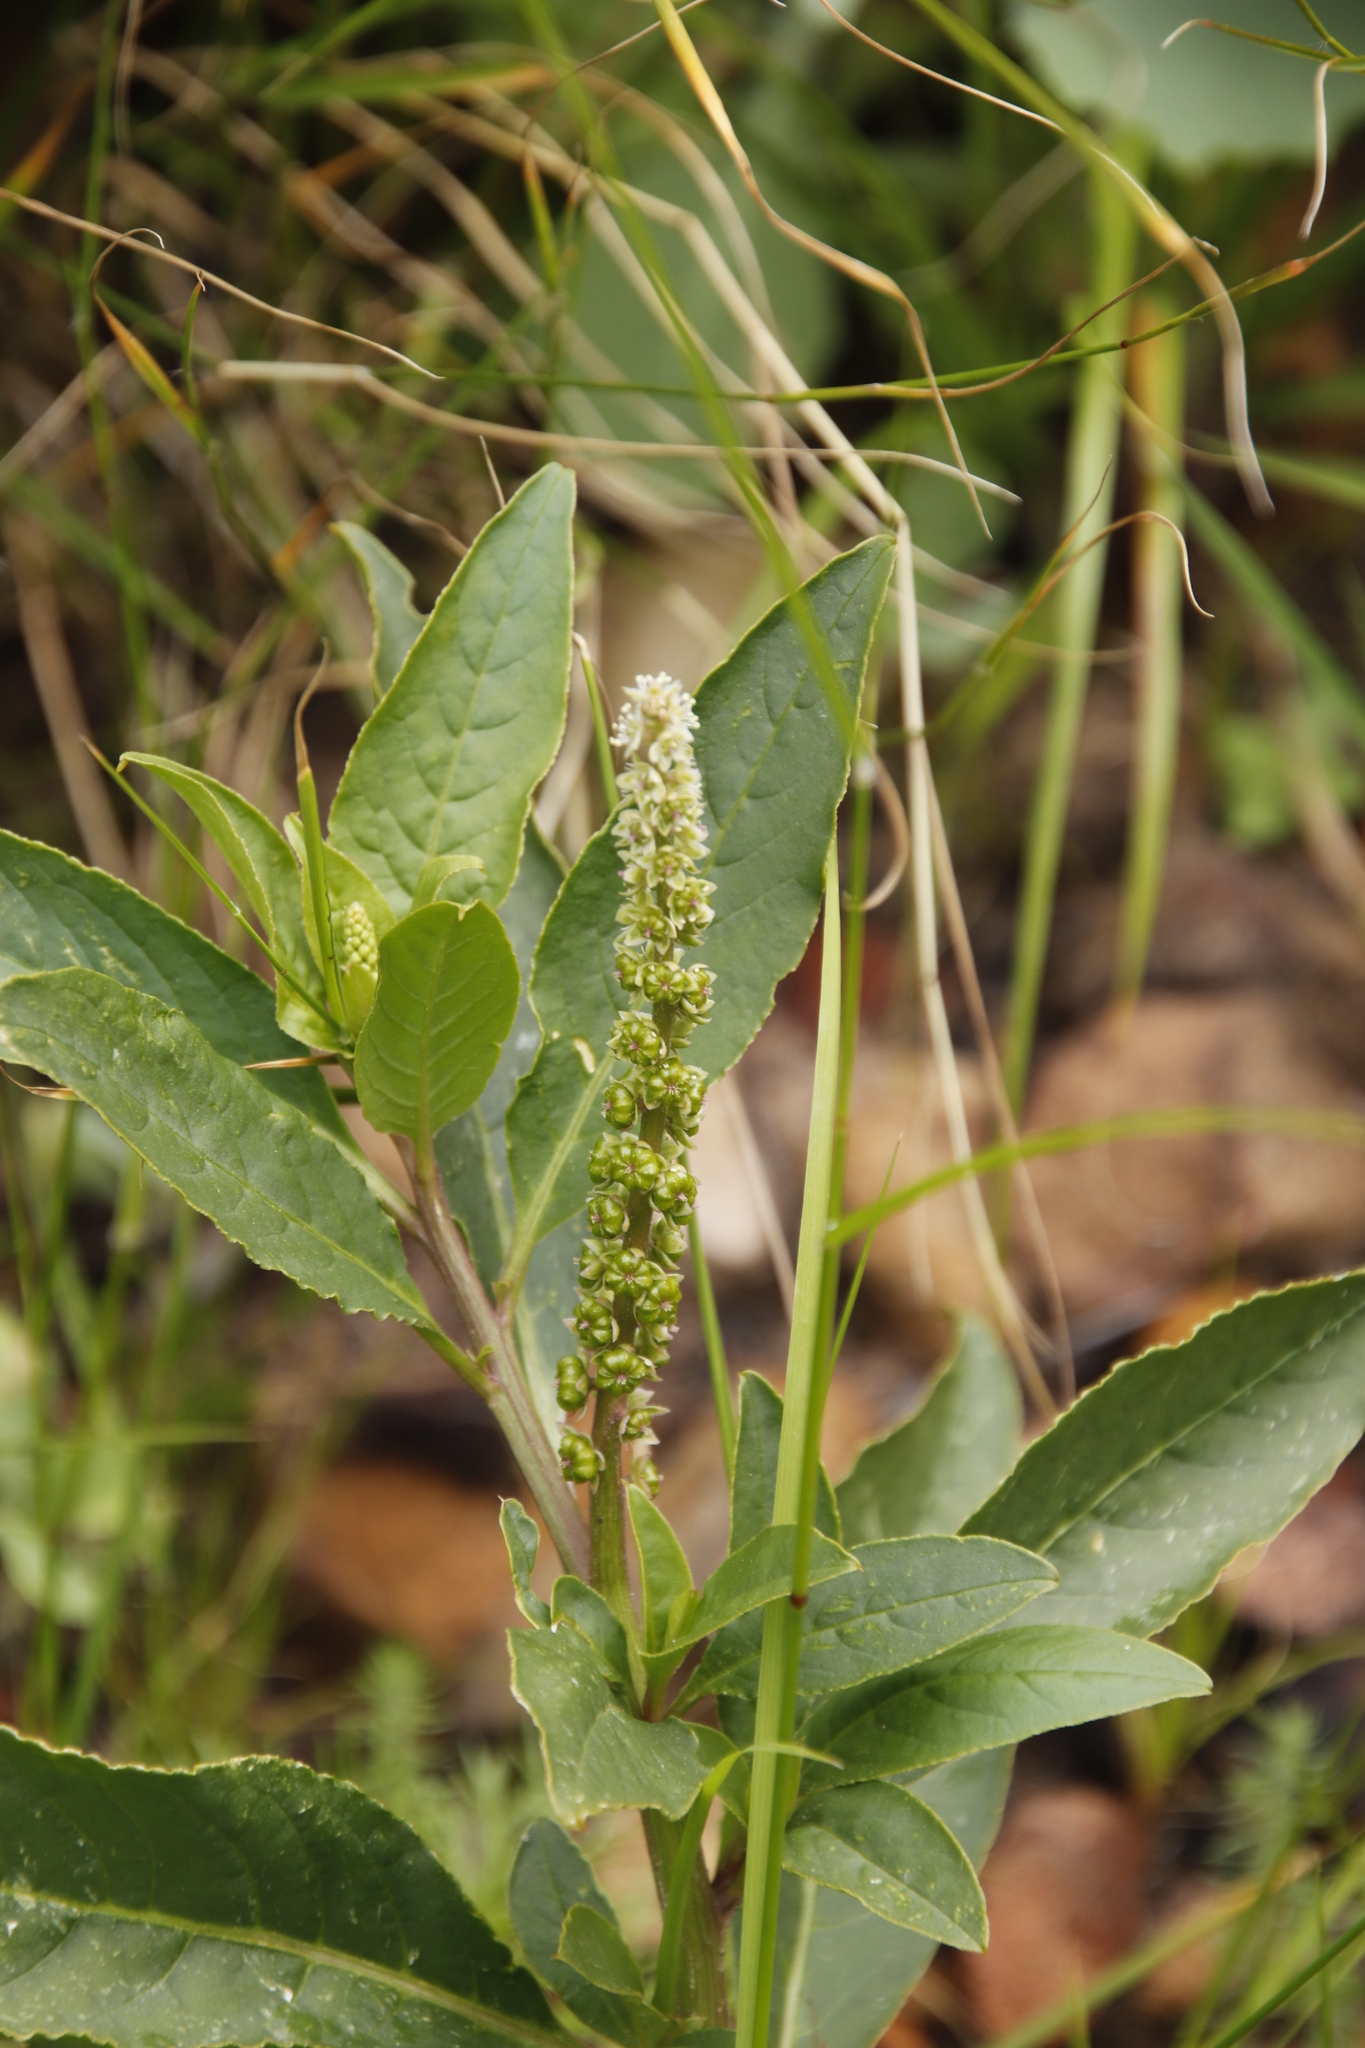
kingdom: Plantae
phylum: Tracheophyta
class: Magnoliopsida
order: Caryophyllales
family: Phytolaccaceae
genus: Phytolacca
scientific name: Phytolacca icosandra
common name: Button pokeweed
